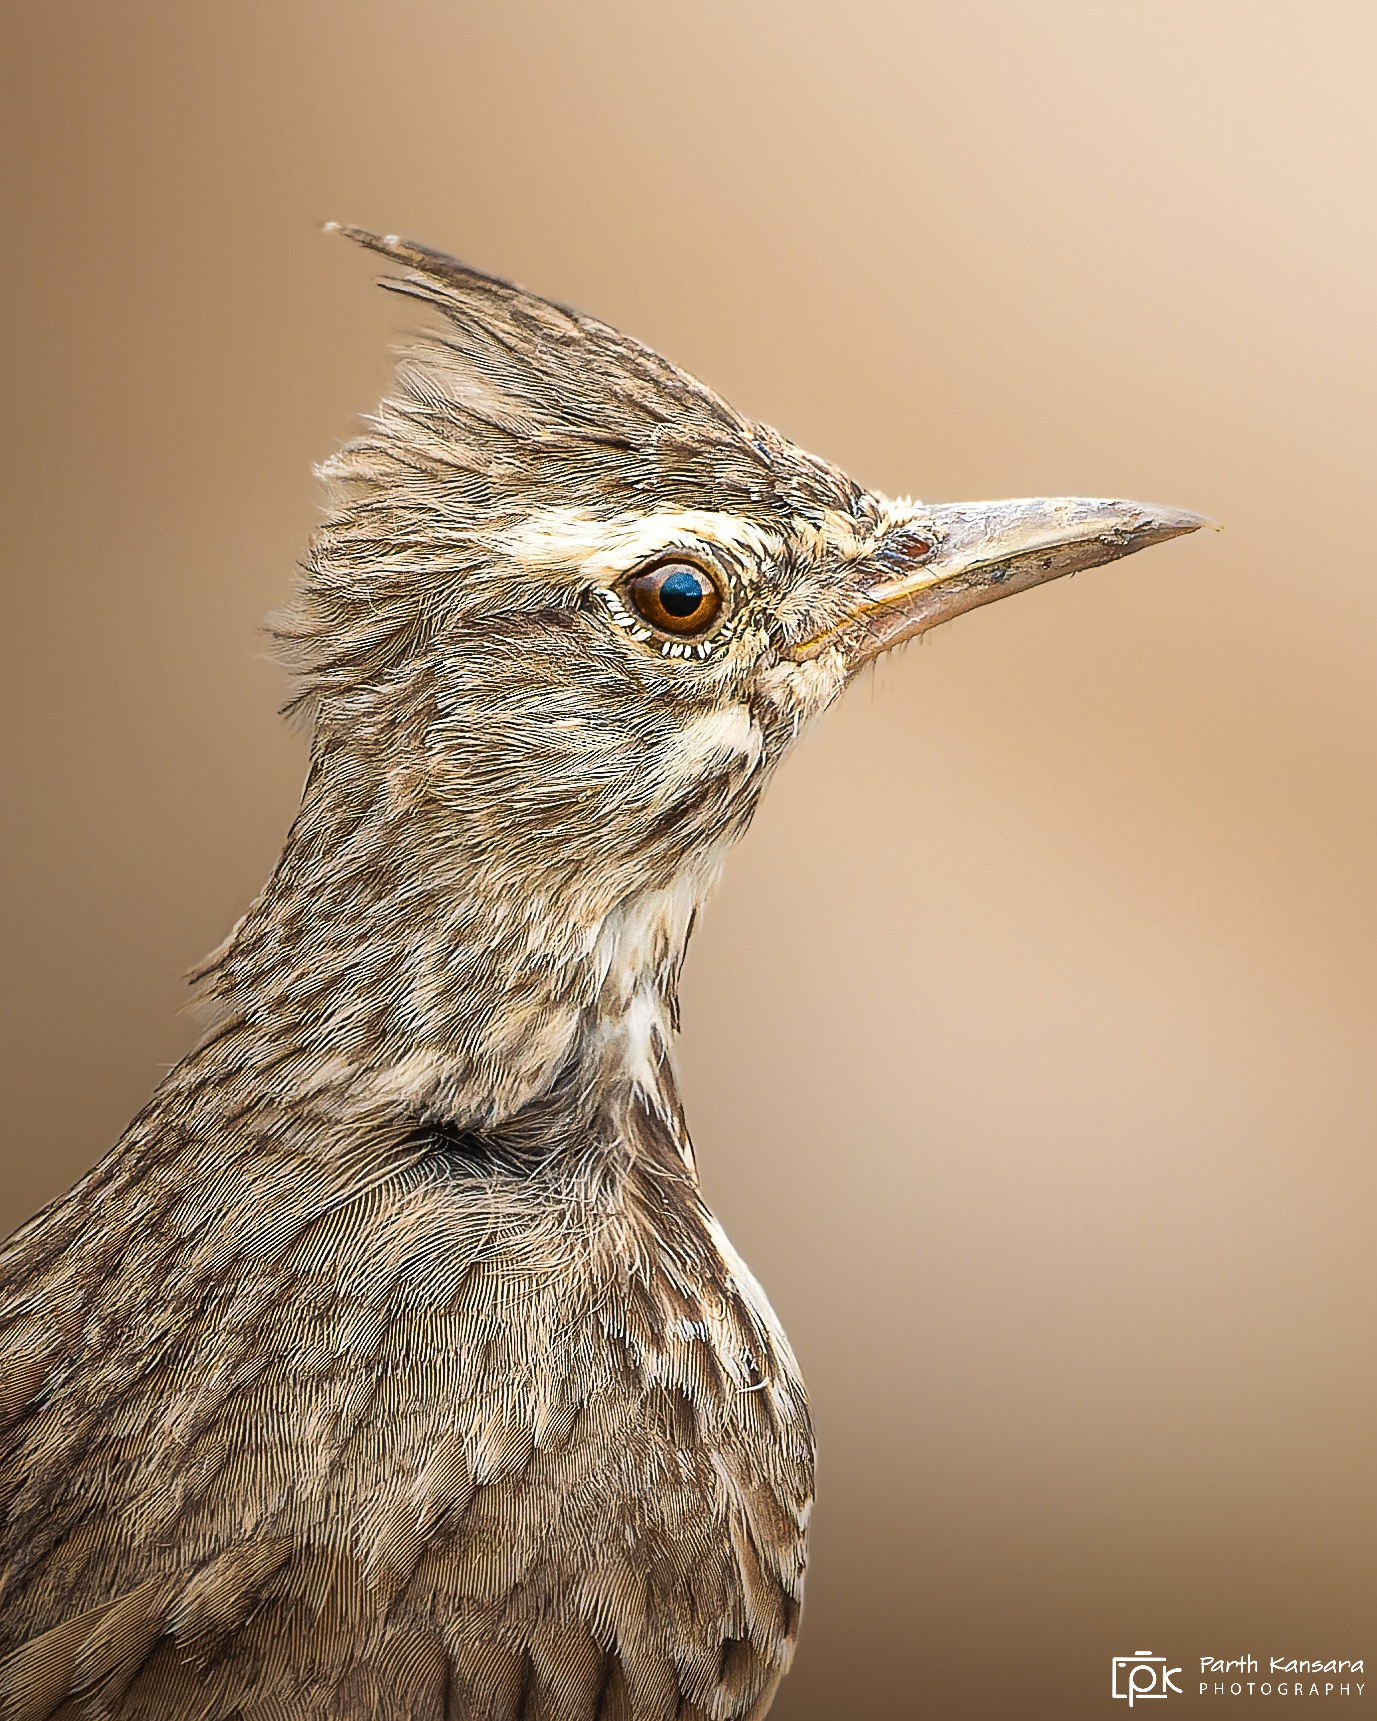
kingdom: Animalia
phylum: Chordata
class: Aves
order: Passeriformes
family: Alaudidae
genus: Galerida
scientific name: Galerida cristata
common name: Crested lark
